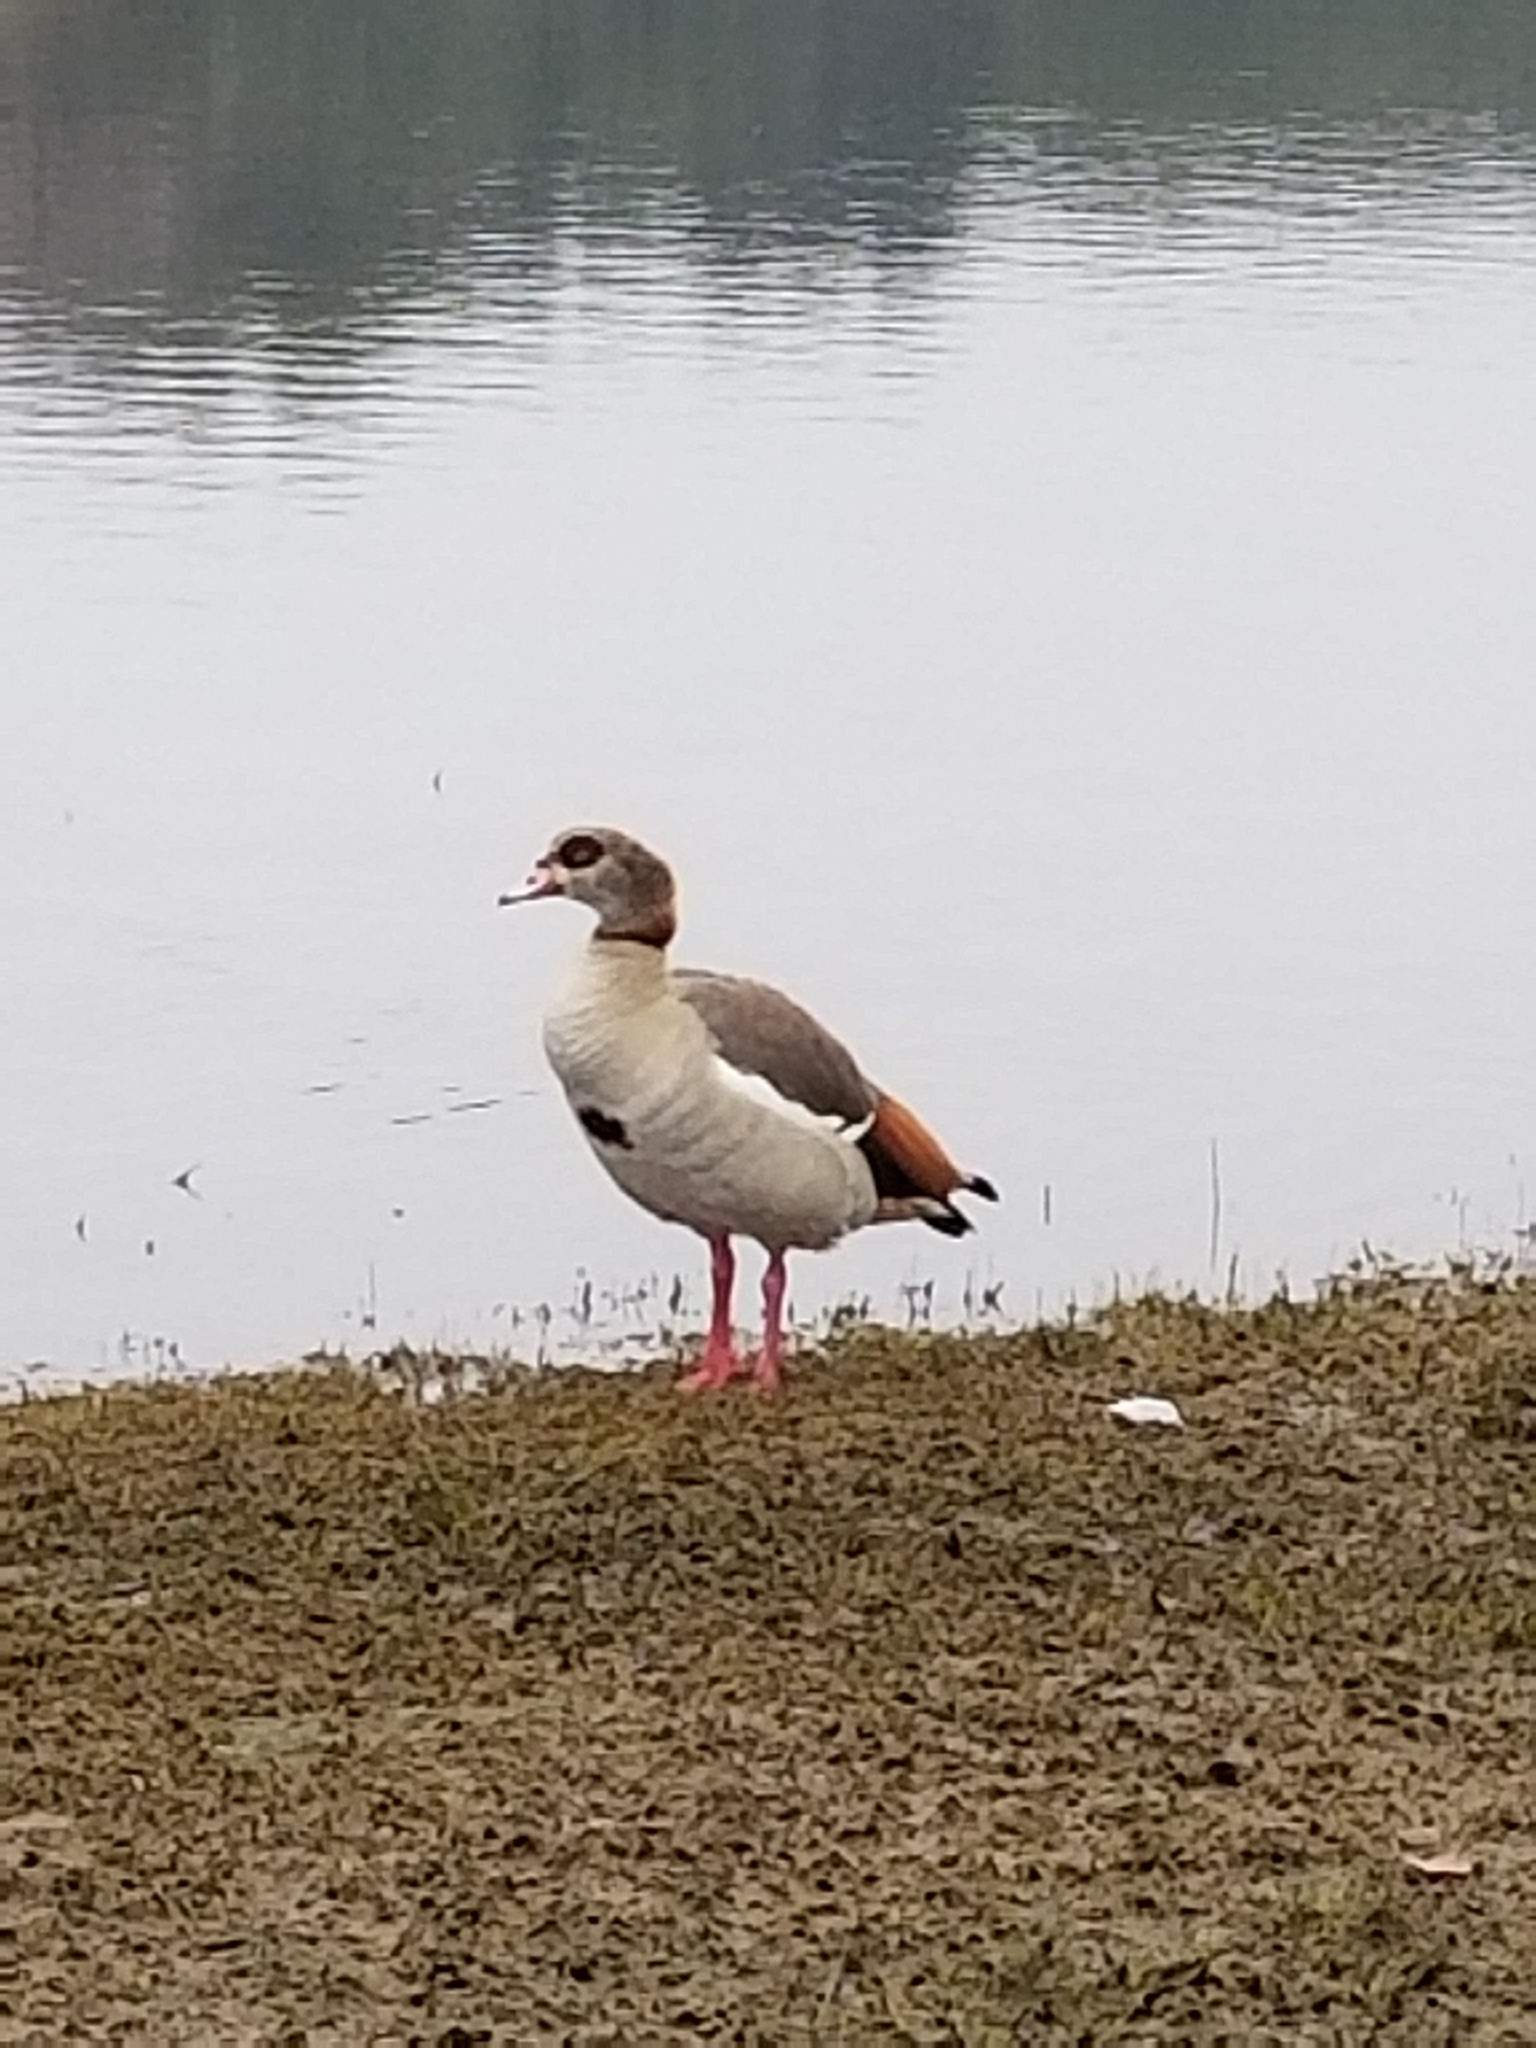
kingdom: Animalia
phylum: Chordata
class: Aves
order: Anseriformes
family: Anatidae
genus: Alopochen
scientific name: Alopochen aegyptiaca
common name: Egyptian goose
